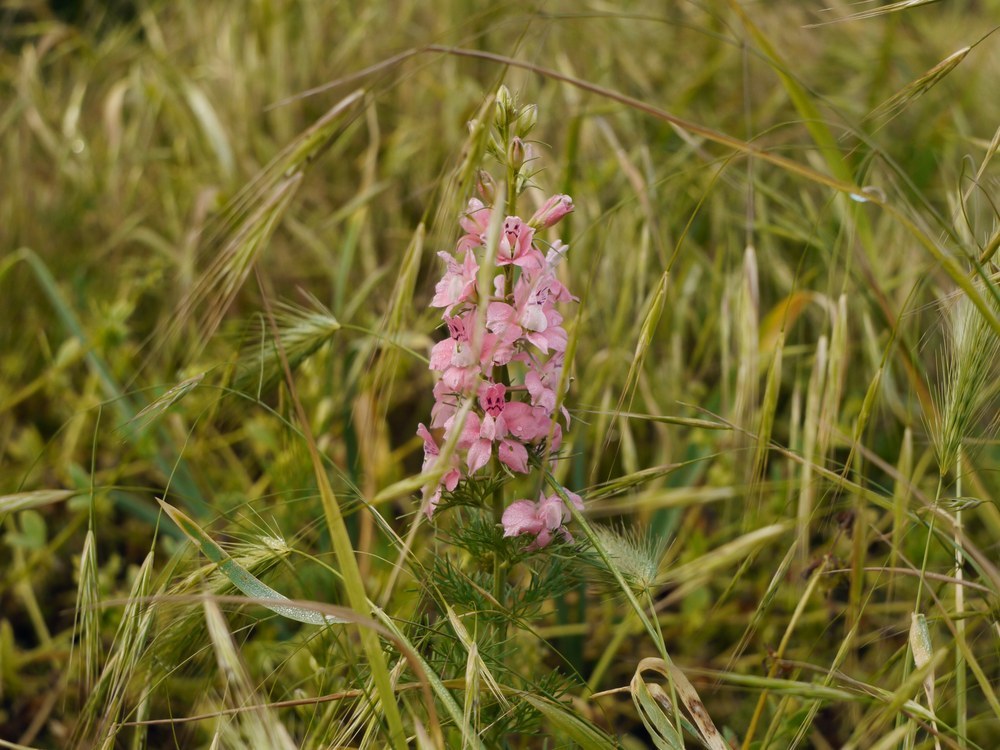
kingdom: Plantae
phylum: Tracheophyta
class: Magnoliopsida
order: Ranunculales
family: Ranunculaceae
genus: Delphinium
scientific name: Delphinium ajacis
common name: Doubtful knight's-spur
